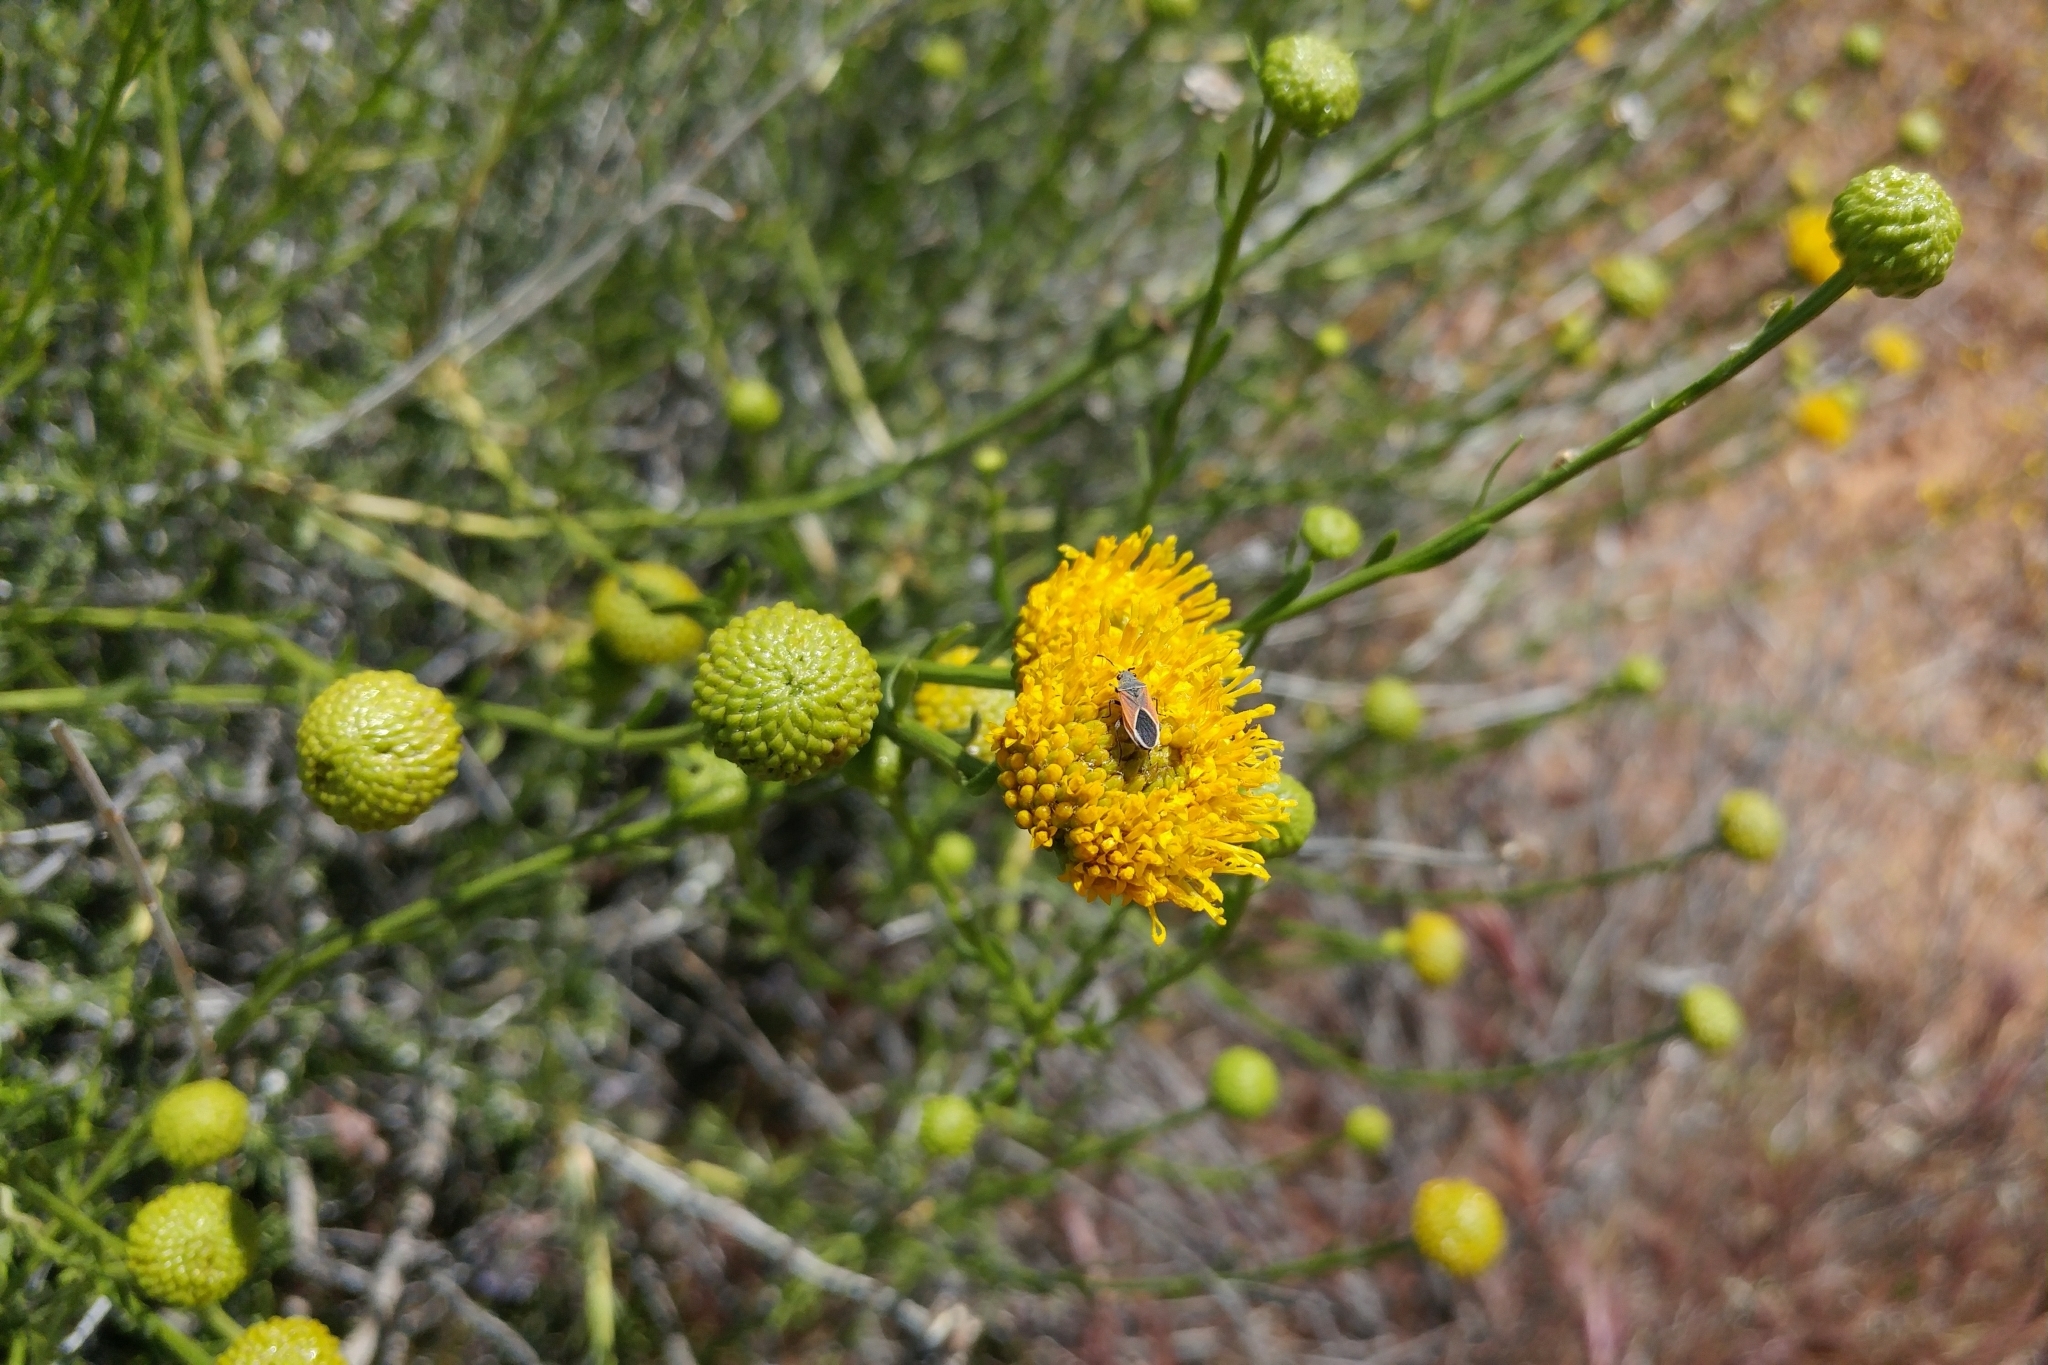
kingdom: Plantae
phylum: Tracheophyta
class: Magnoliopsida
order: Asterales
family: Asteraceae
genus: Eastwoodia
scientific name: Eastwoodia elegans
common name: Yellow-aster
